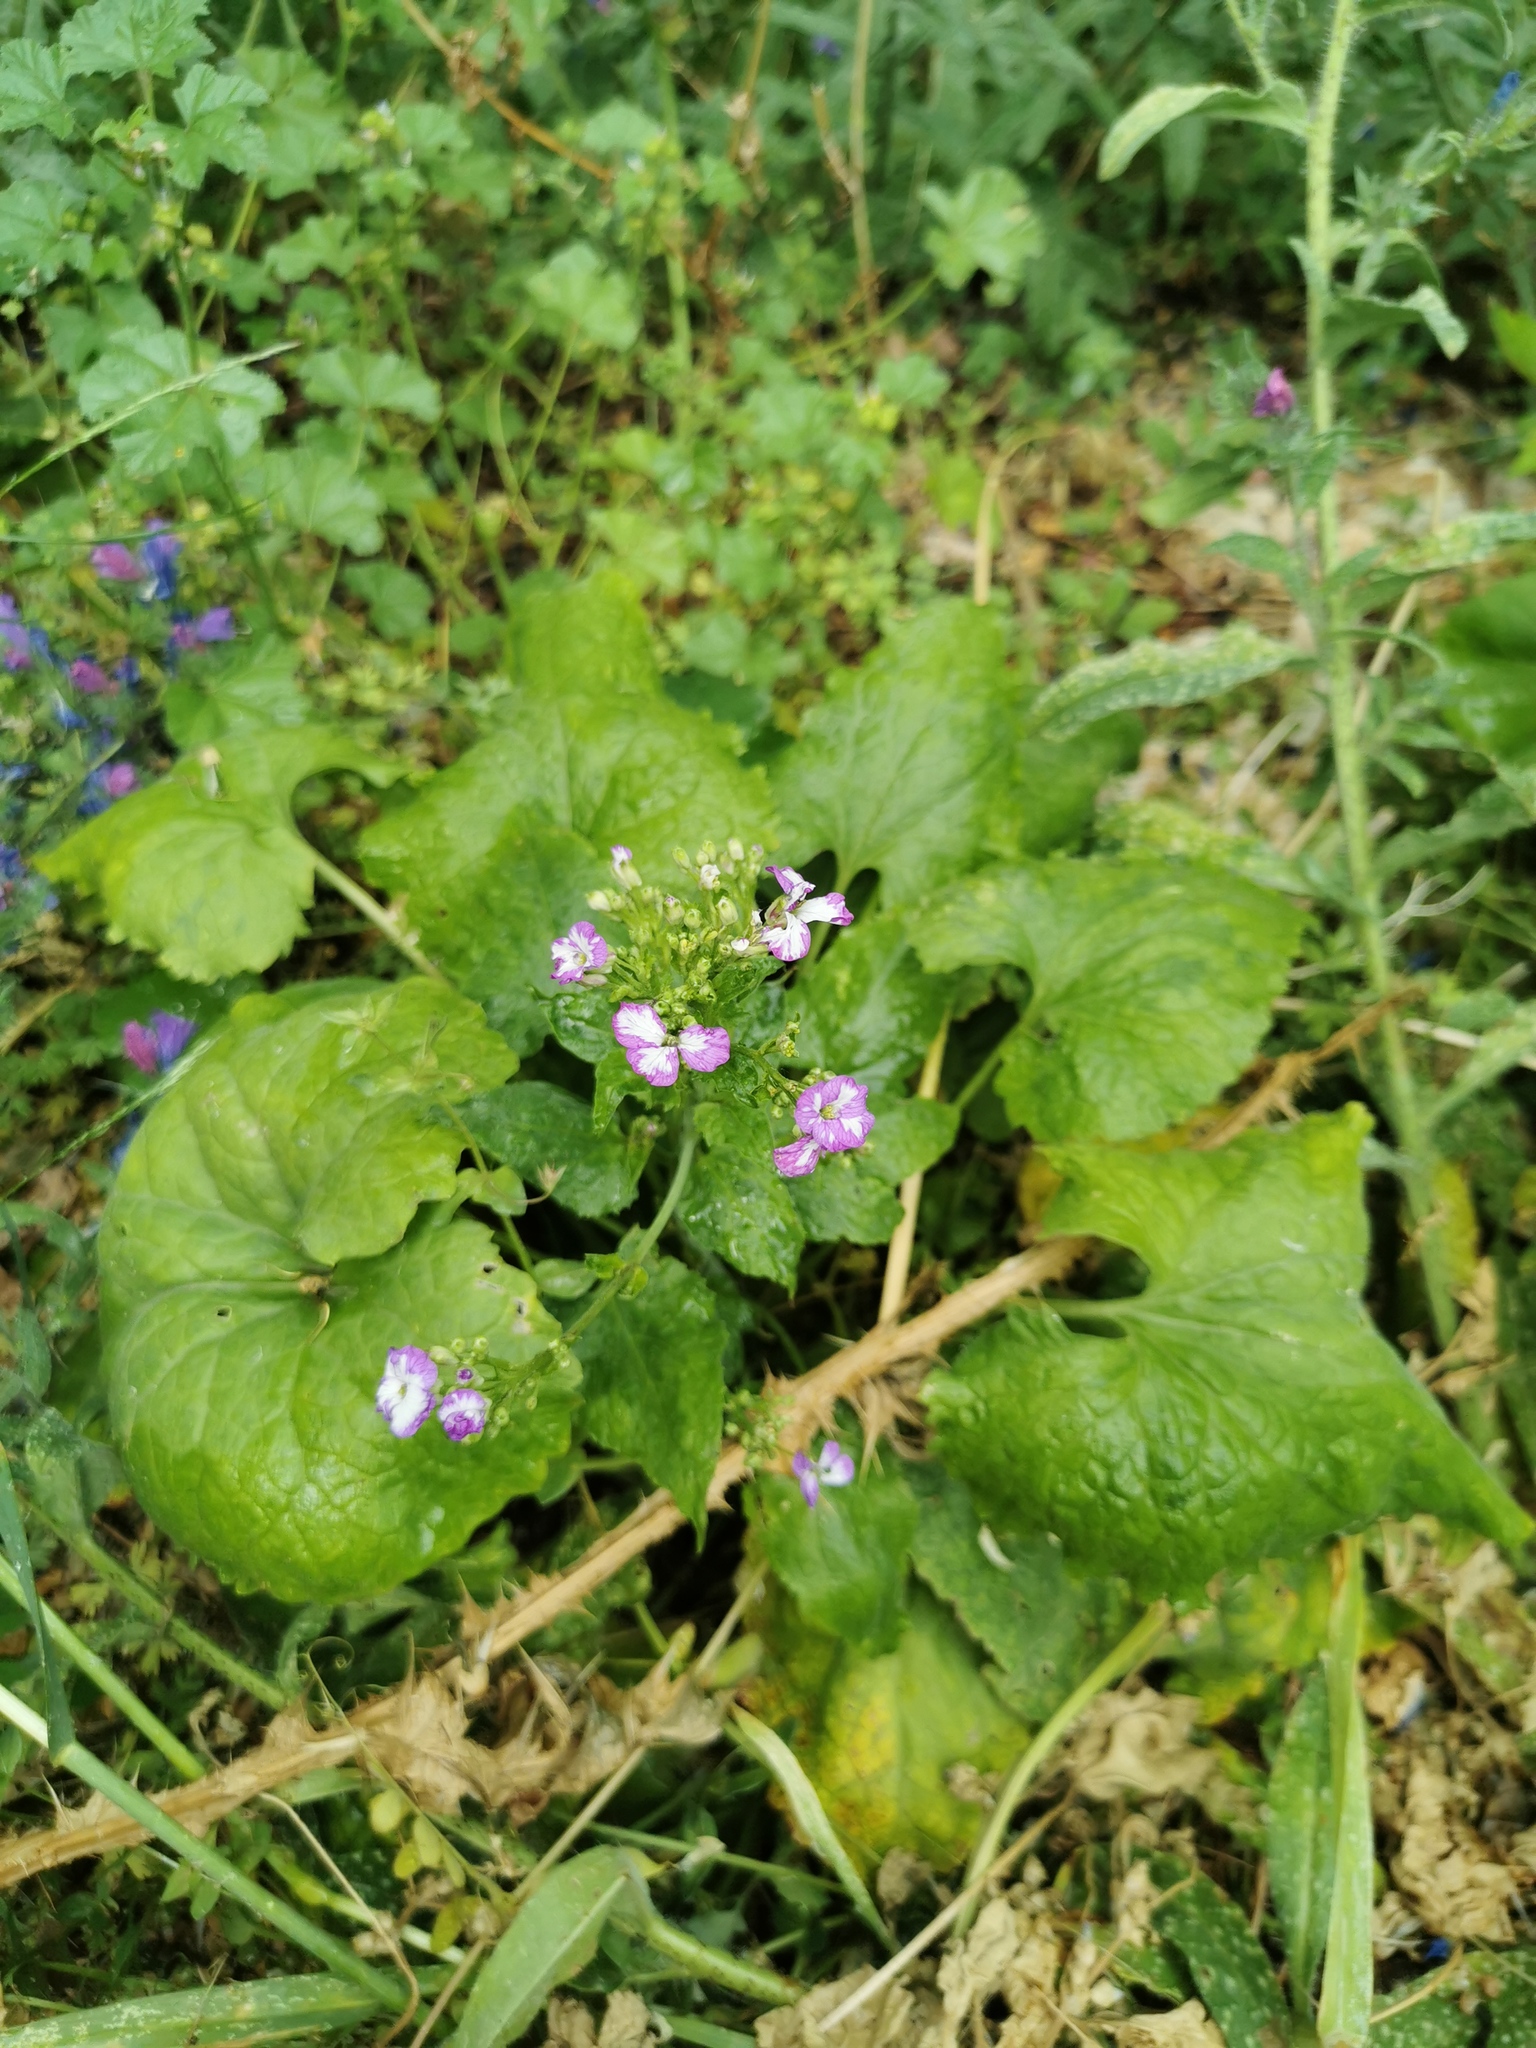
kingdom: Plantae
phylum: Tracheophyta
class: Magnoliopsida
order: Brassicales
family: Brassicaceae
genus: Lunaria
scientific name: Lunaria annua
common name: Honesty
